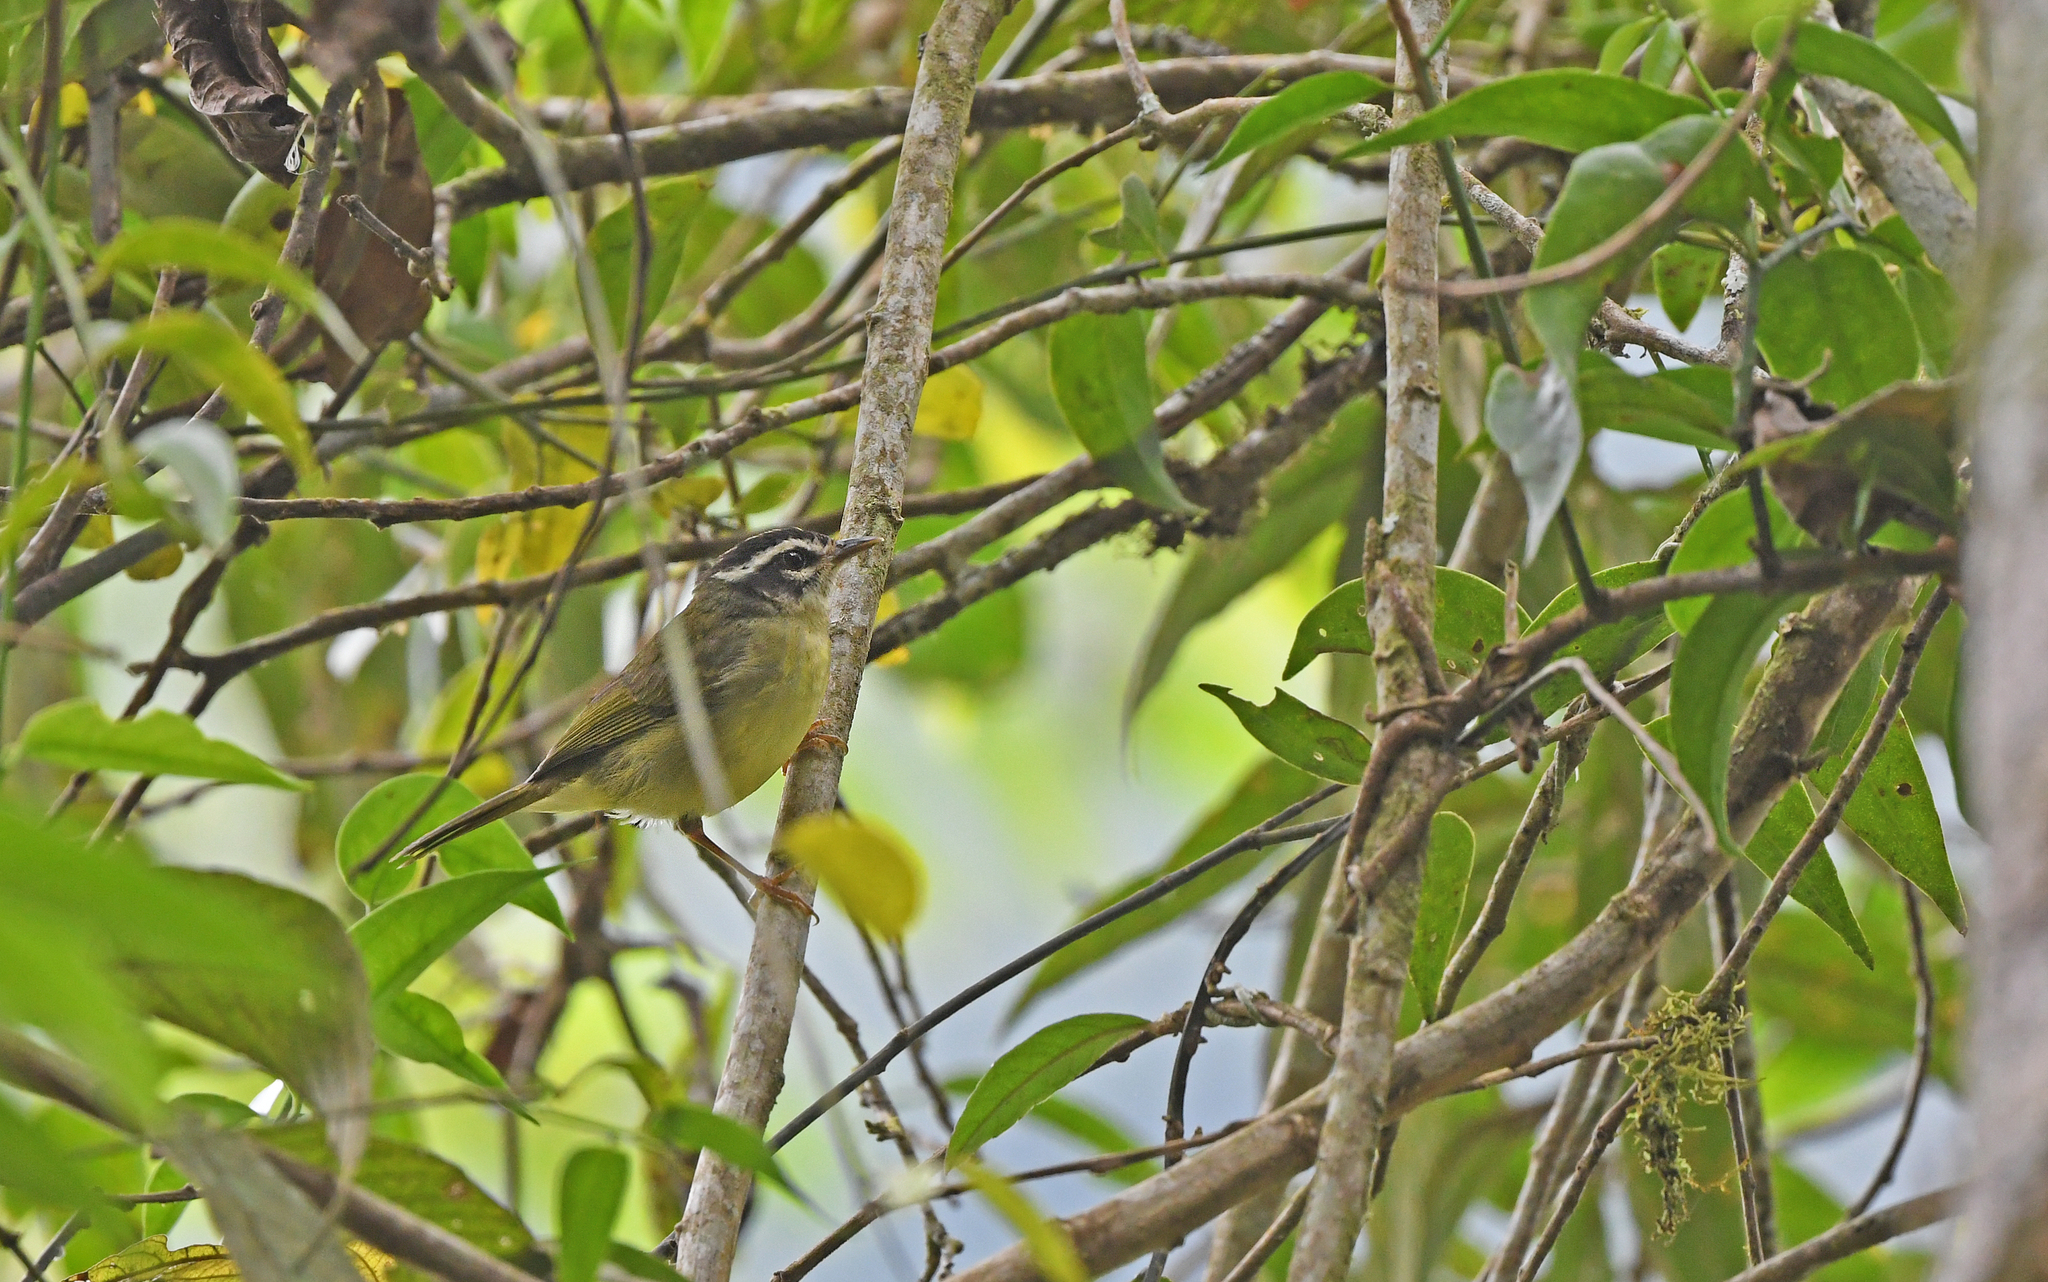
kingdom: Animalia
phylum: Chordata
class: Aves
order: Passeriformes
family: Parulidae
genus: Basileuterus
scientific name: Basileuterus tristriatus
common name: Three-striped warbler
